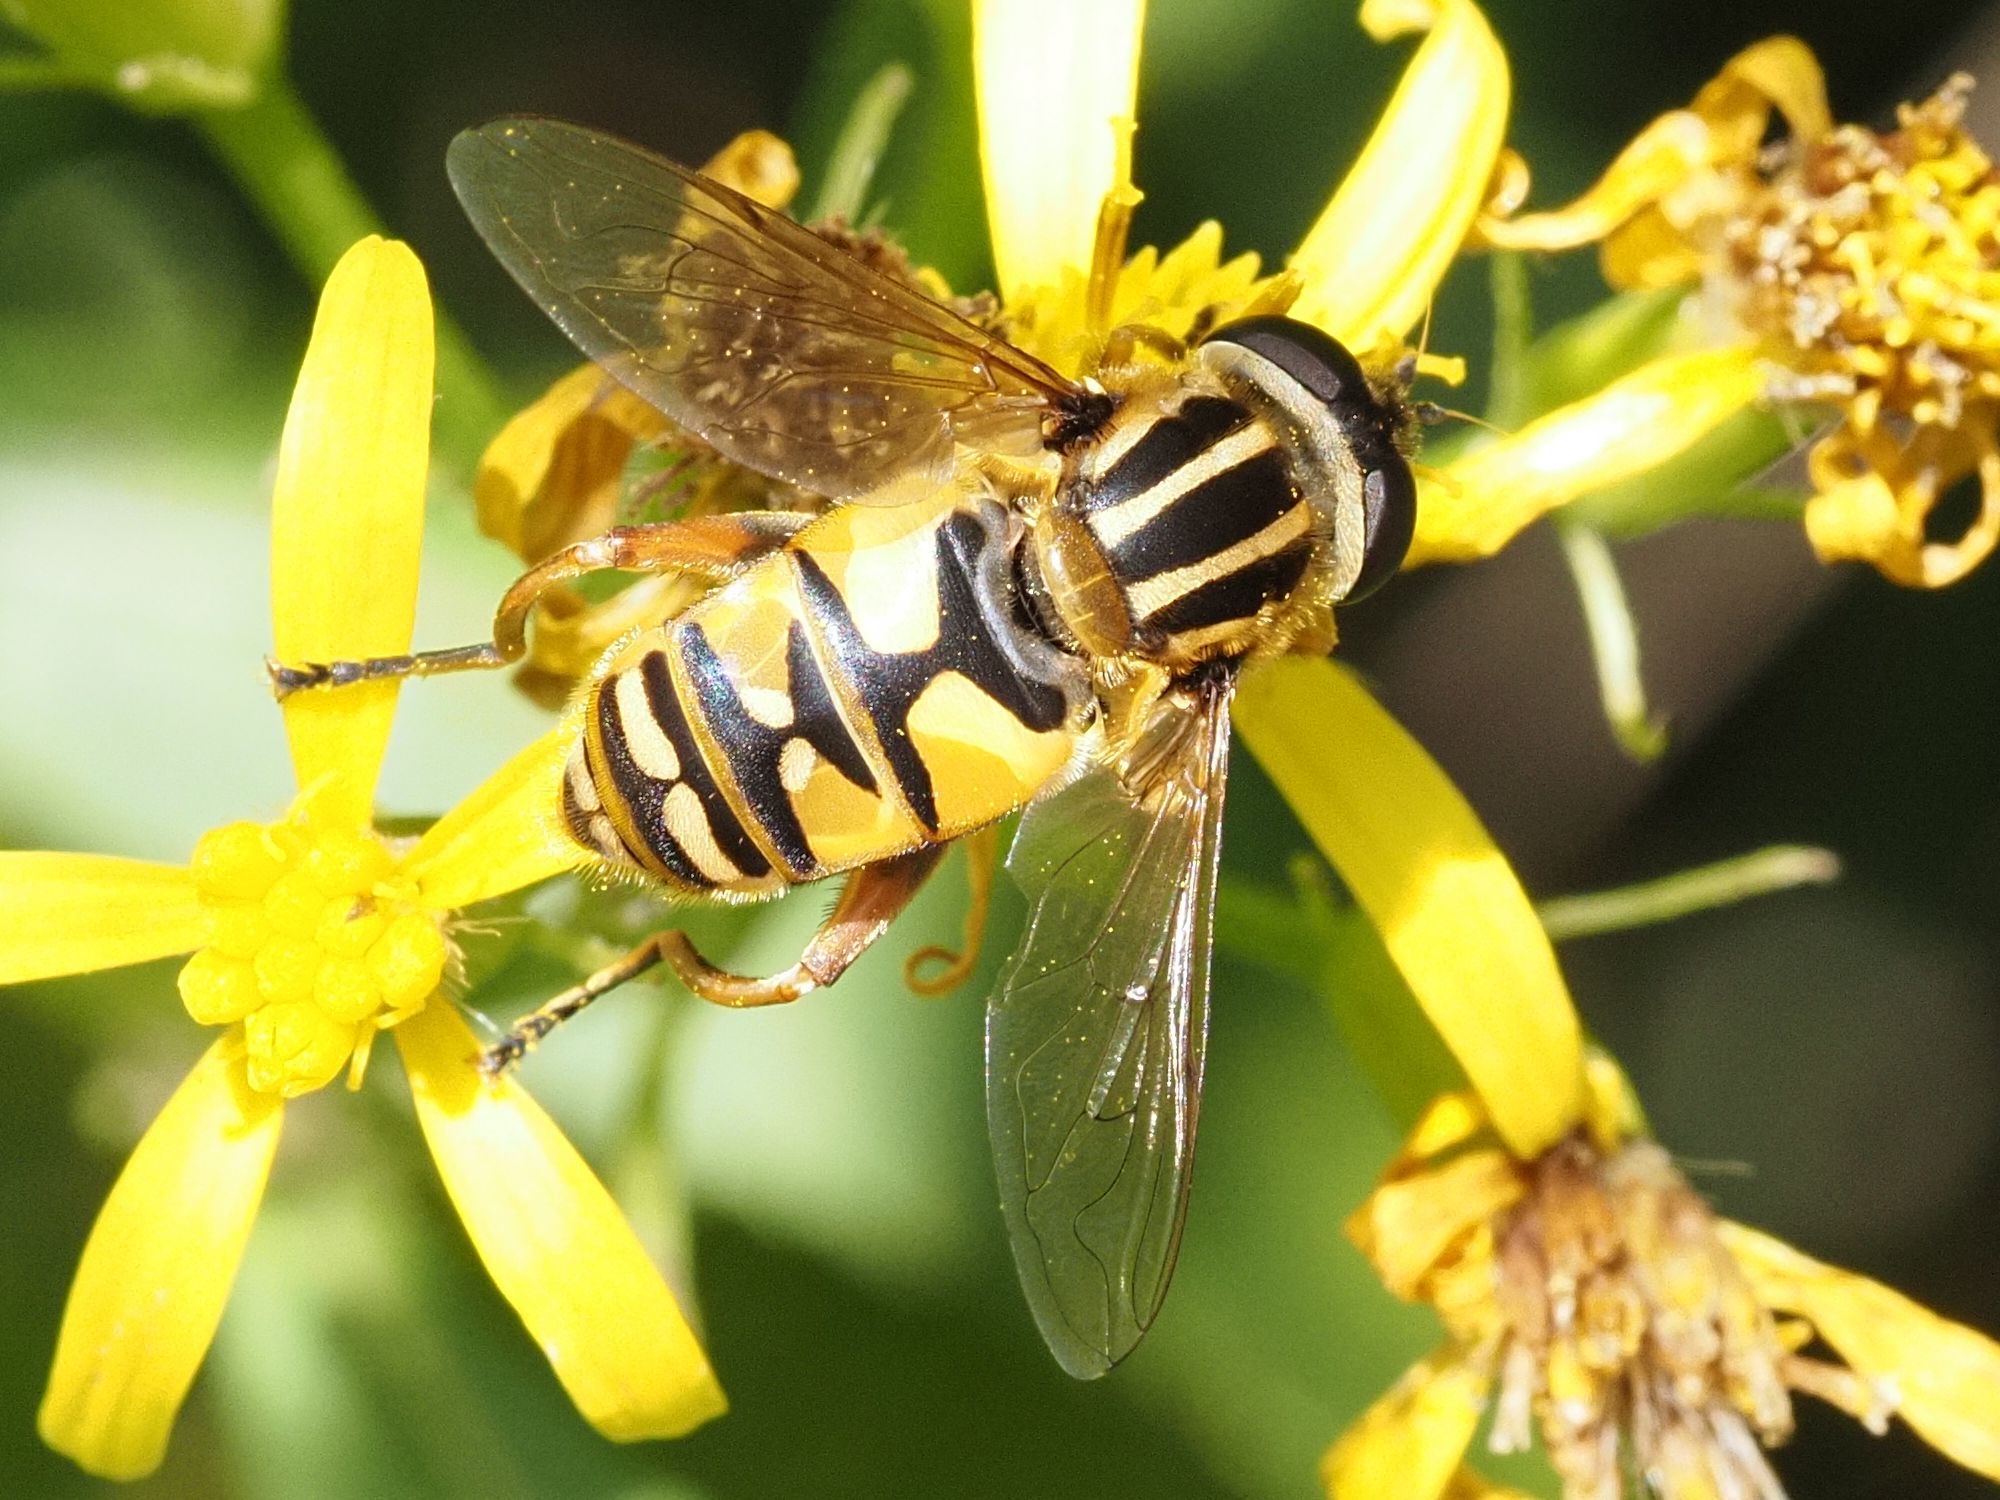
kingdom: Animalia
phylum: Arthropoda
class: Insecta
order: Diptera
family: Syrphidae
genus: Helophilus
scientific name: Helophilus pendulus
